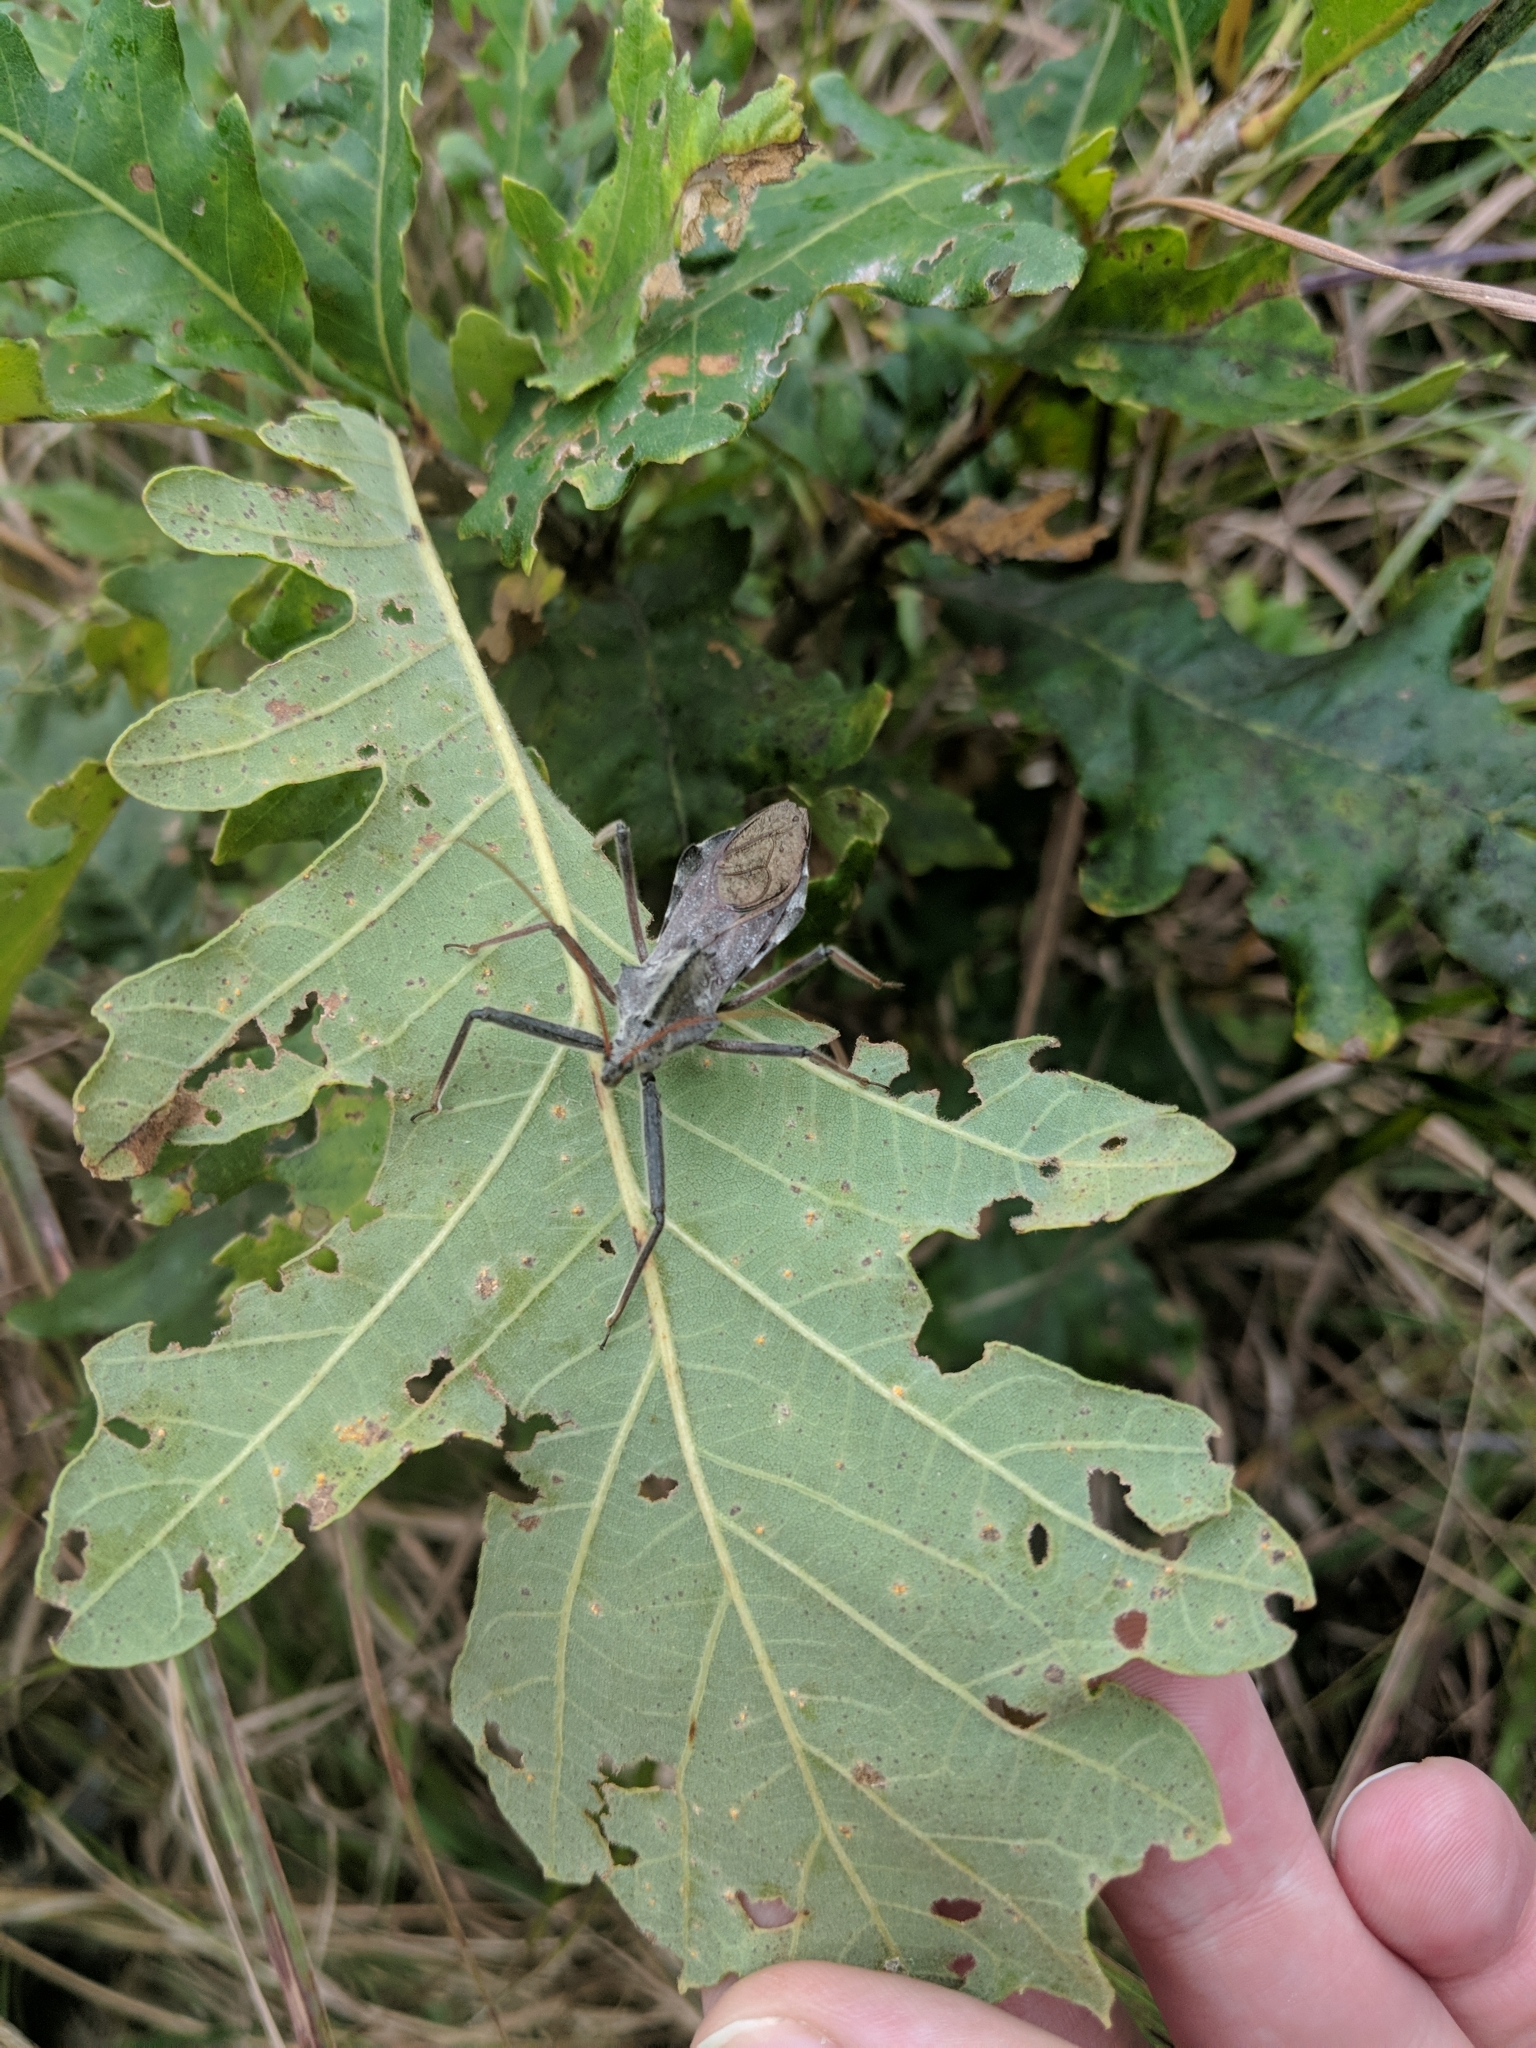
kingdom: Animalia
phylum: Arthropoda
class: Insecta
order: Hemiptera
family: Reduviidae
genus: Arilus
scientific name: Arilus cristatus
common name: North american wheel bug
